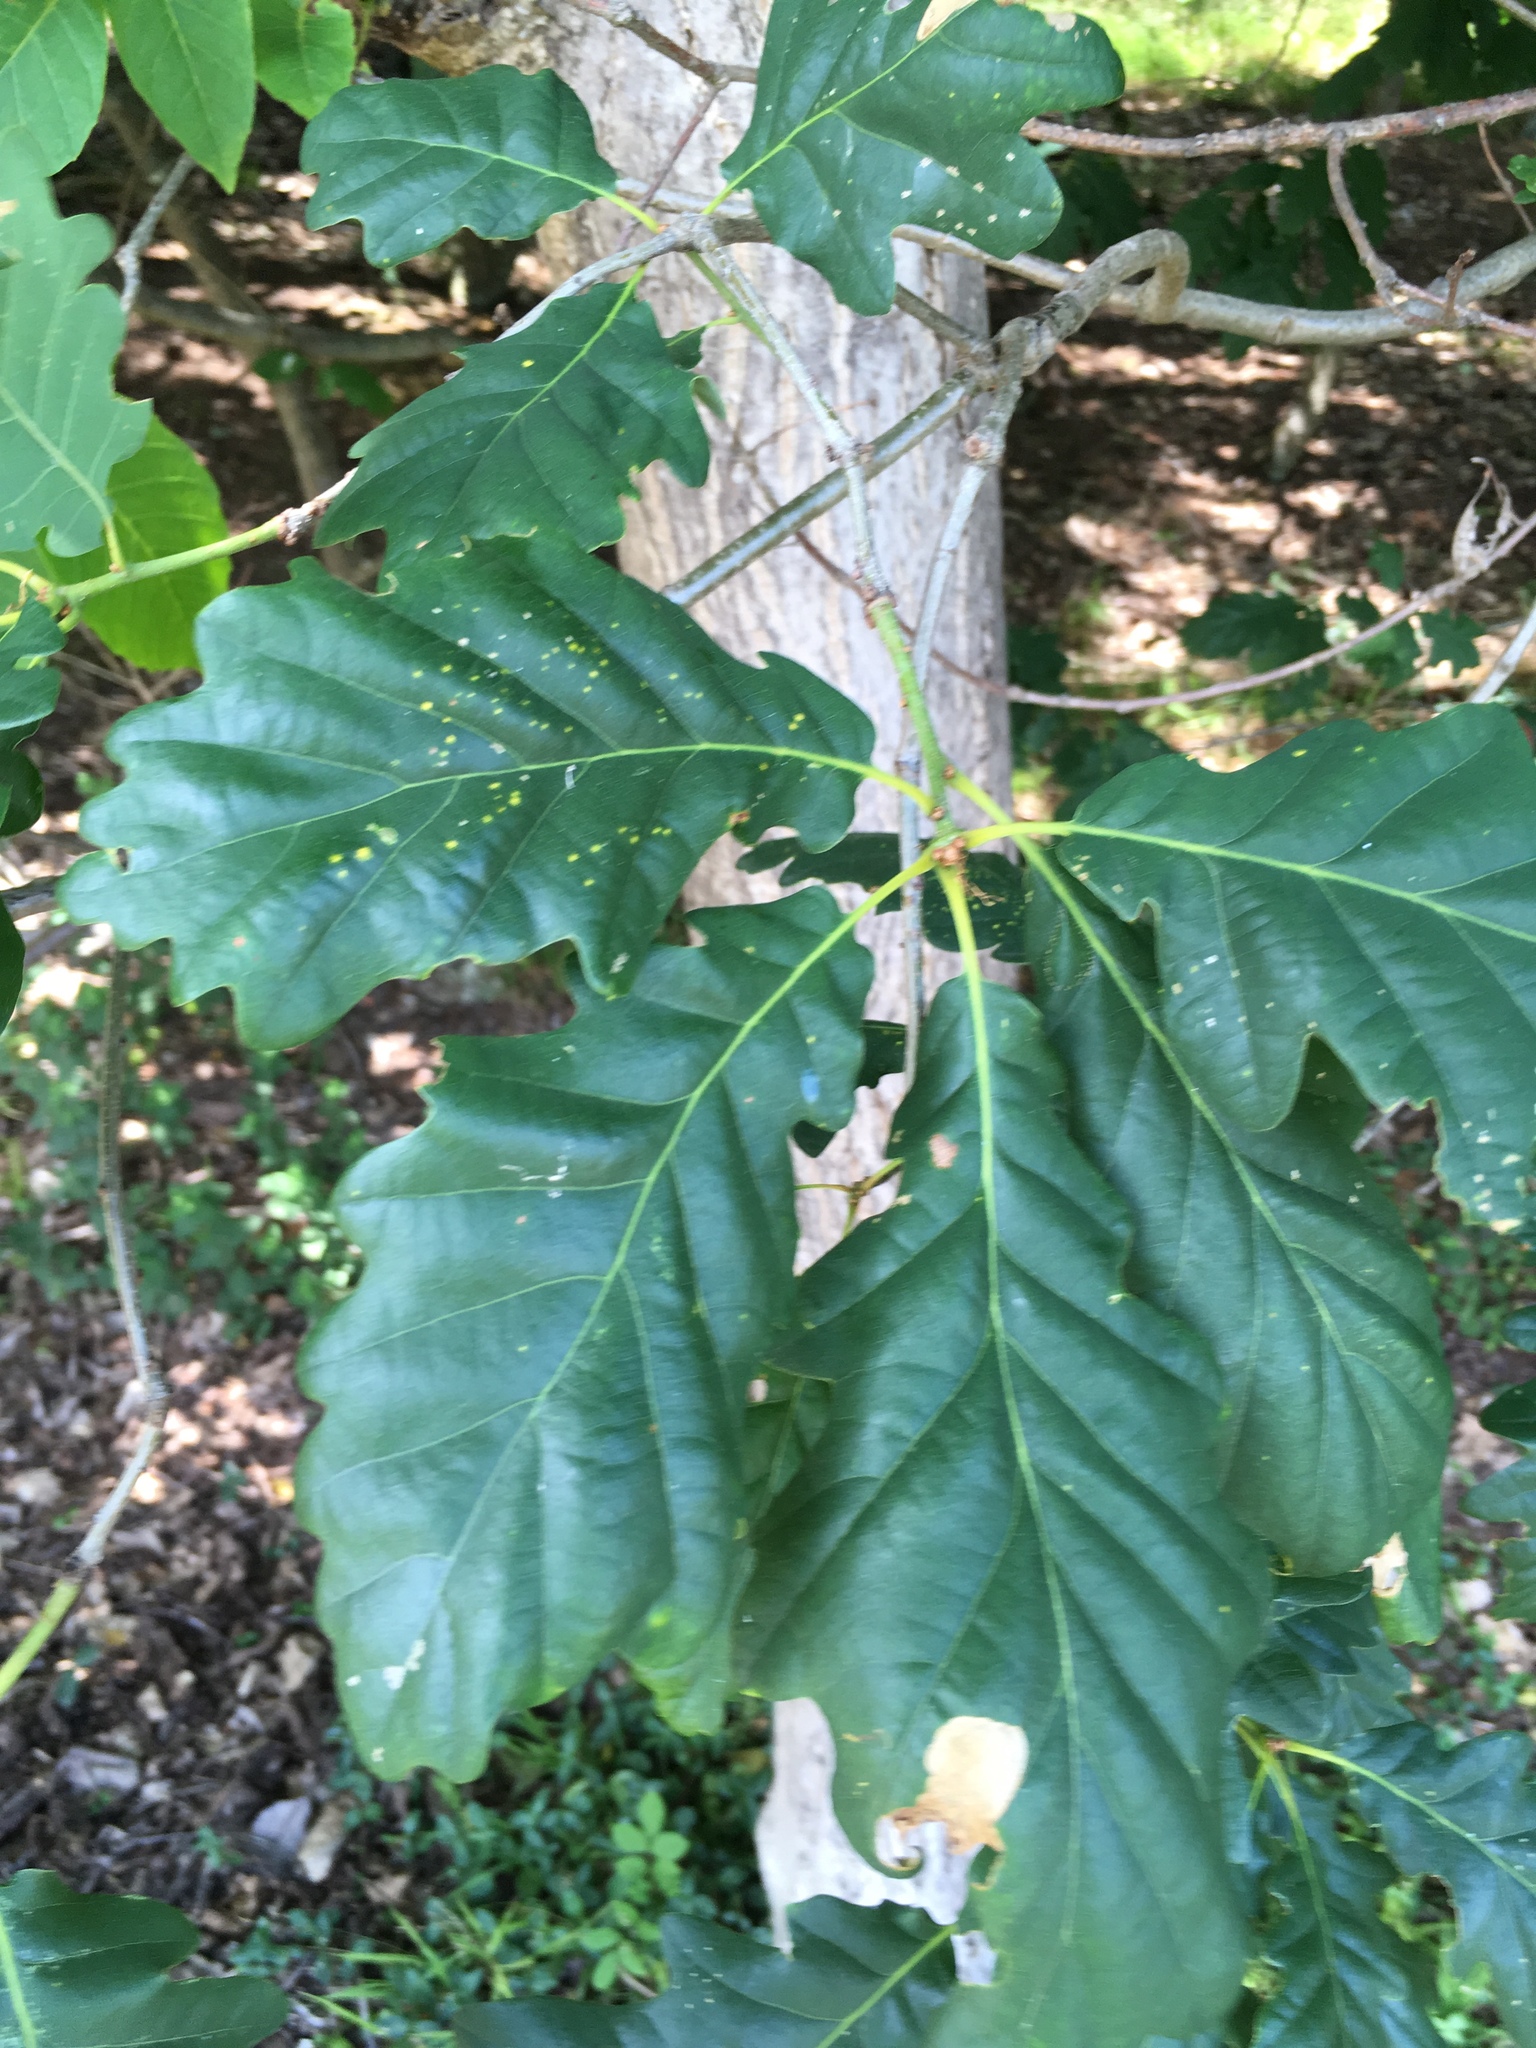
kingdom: Plantae
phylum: Tracheophyta
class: Magnoliopsida
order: Fagales
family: Fagaceae
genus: Quercus
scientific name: Quercus petraea
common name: Sessile oak
